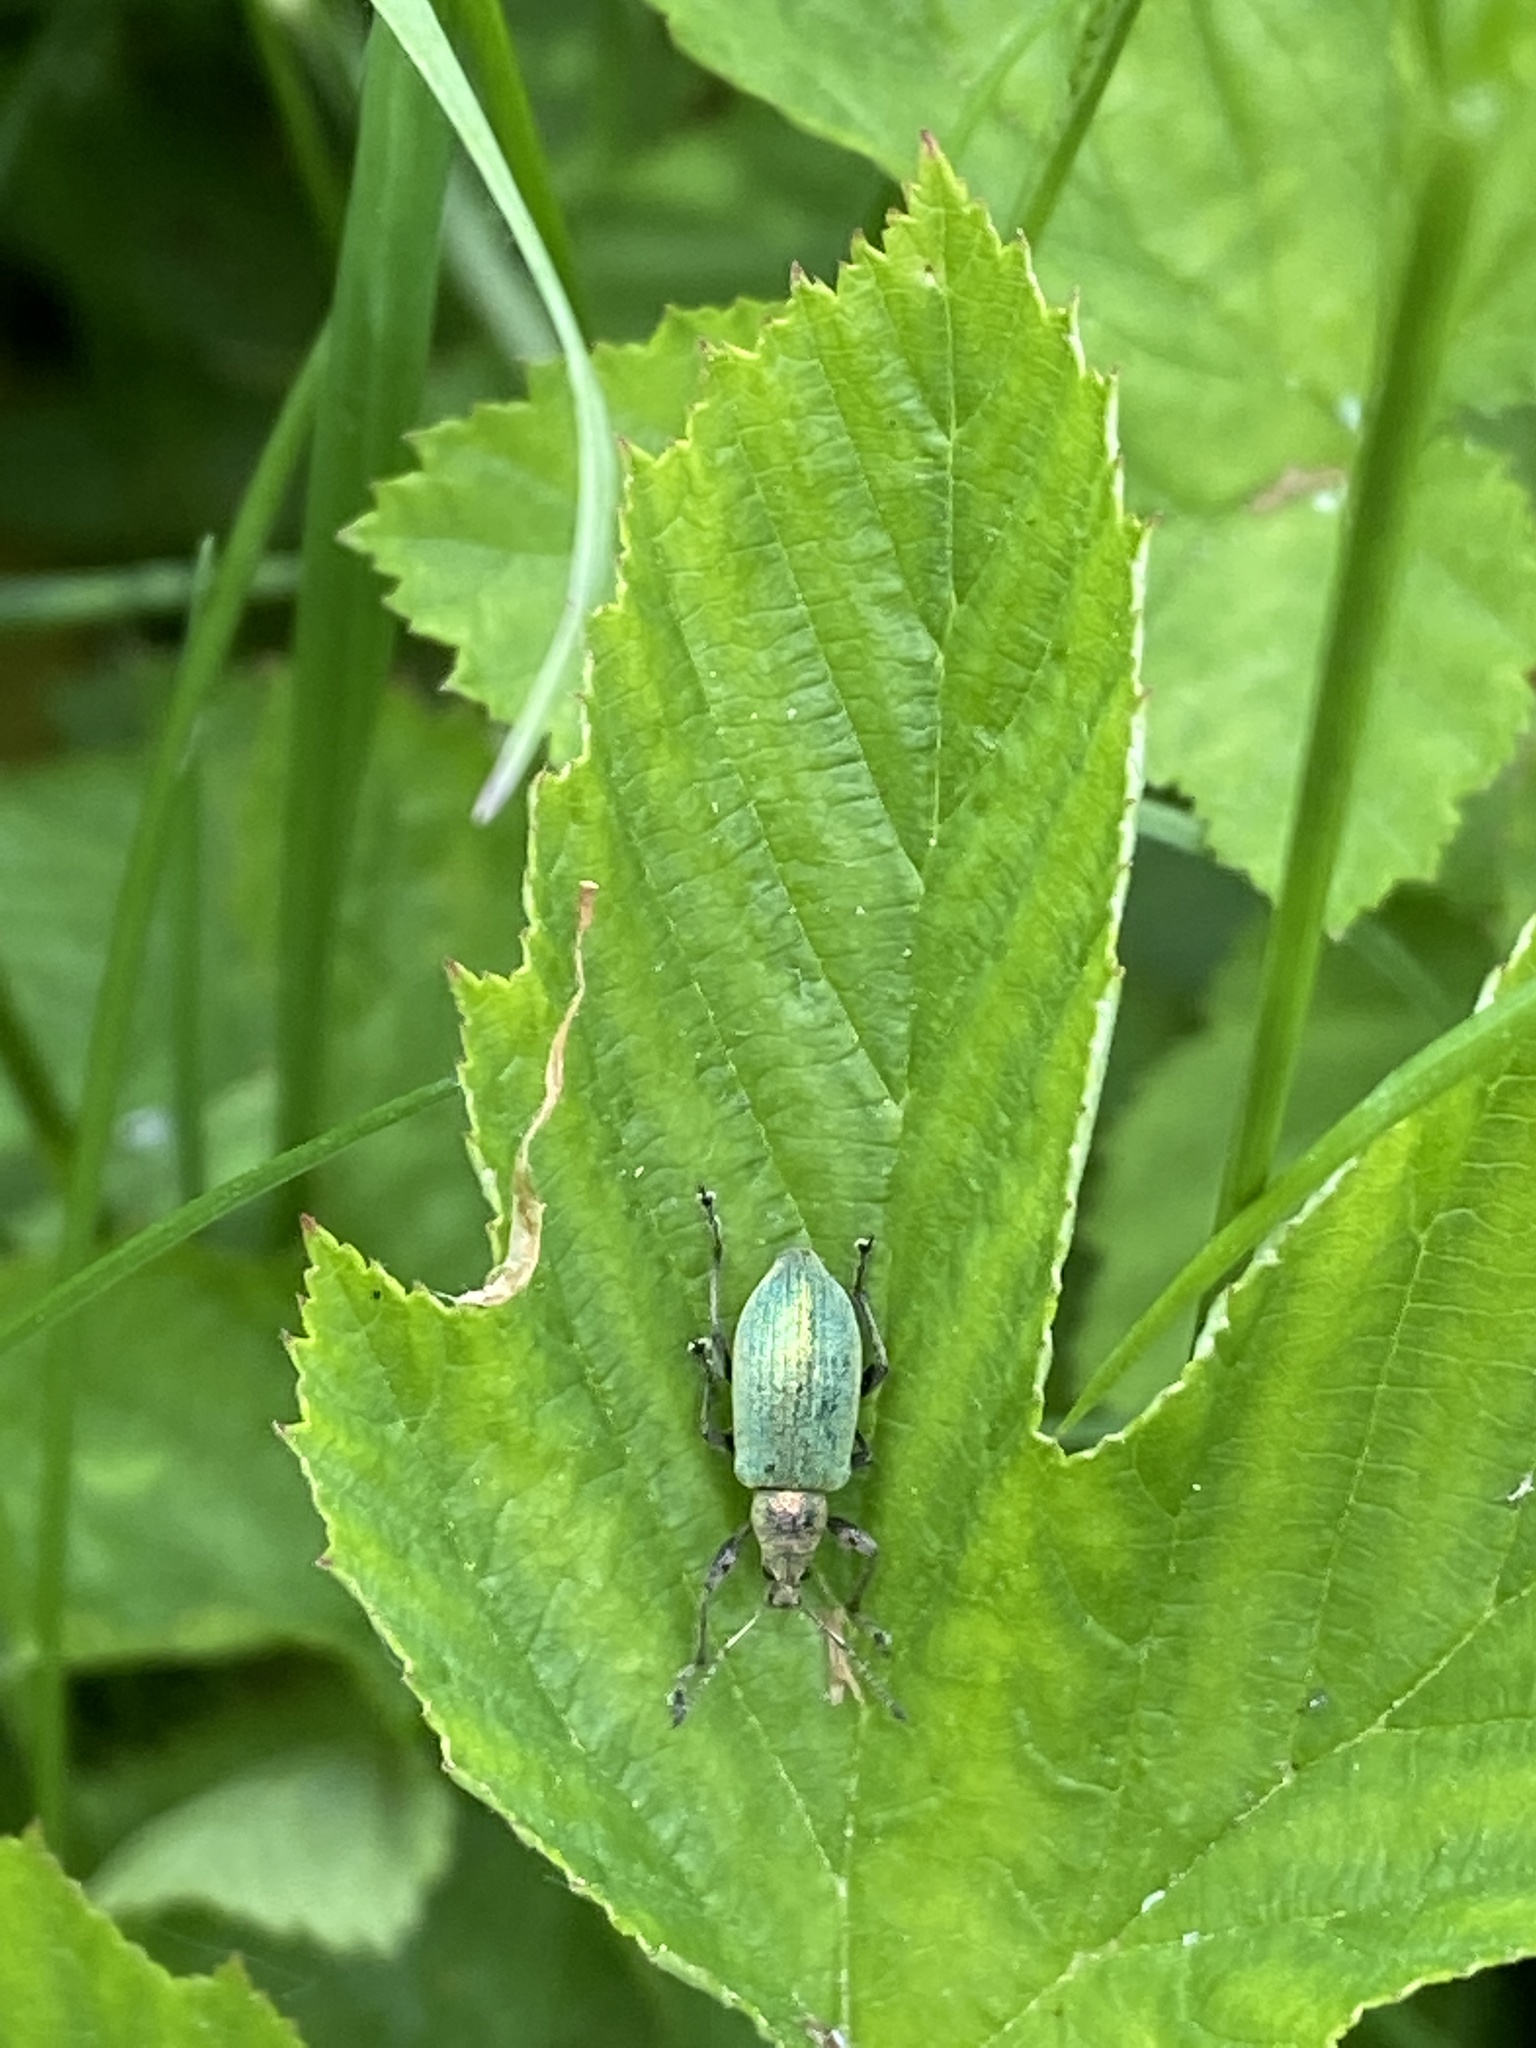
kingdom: Animalia
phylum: Arthropoda
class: Insecta
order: Coleoptera
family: Curculionidae
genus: Phyllobius
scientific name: Phyllobius pomaceus
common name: Green nettle weevil
